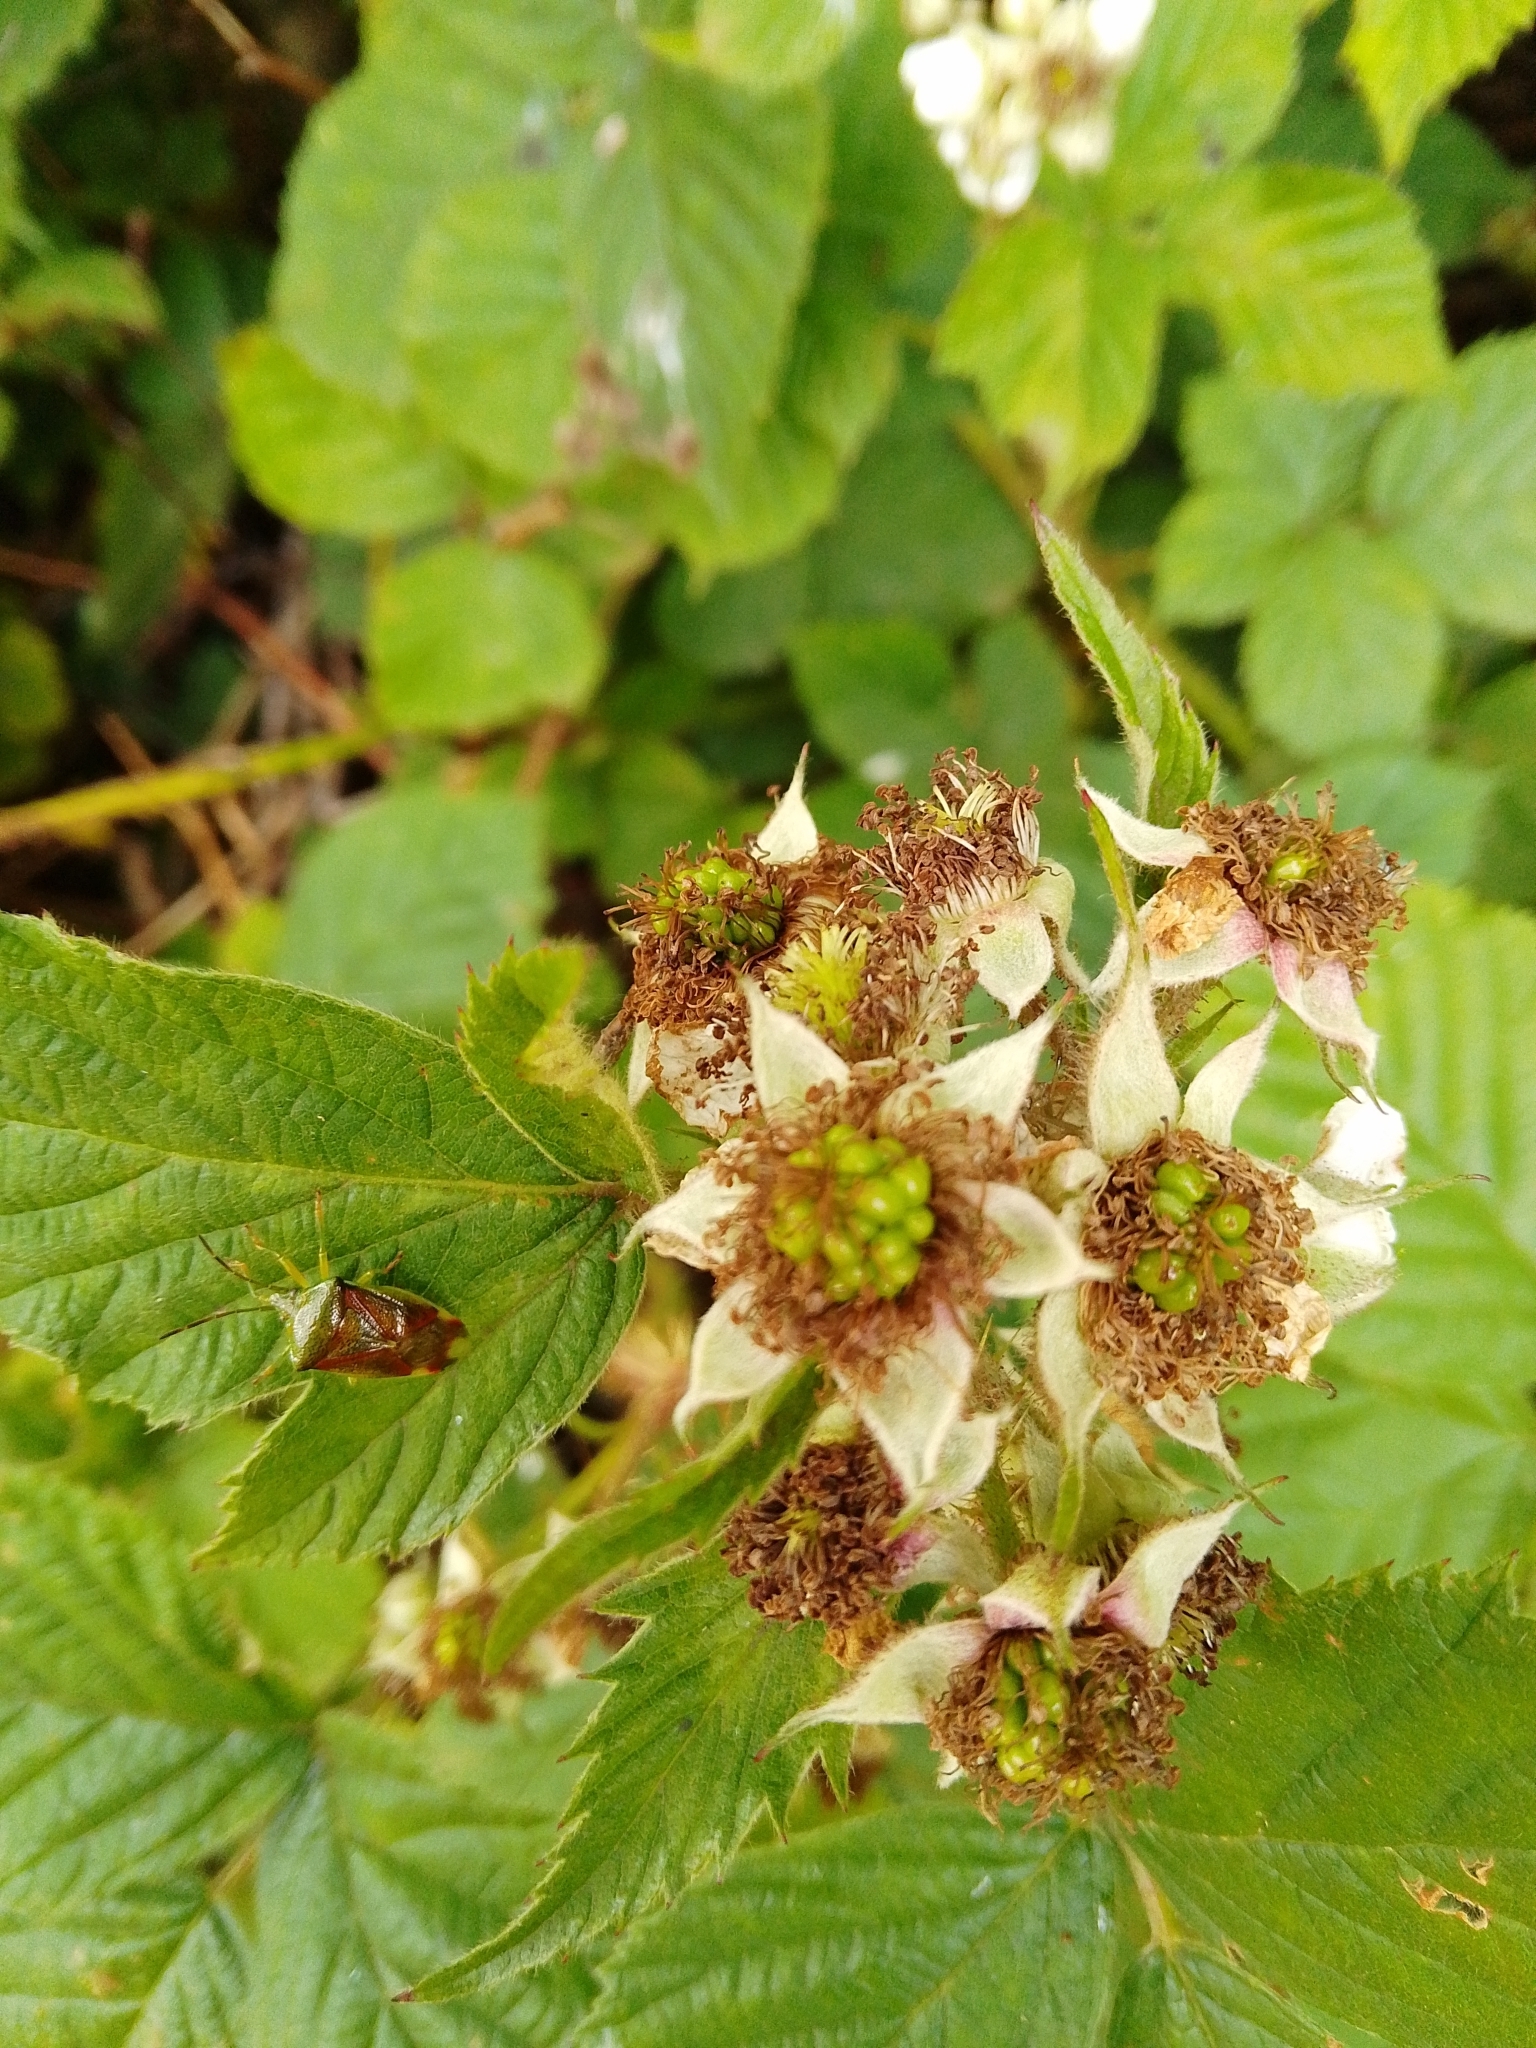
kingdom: Animalia
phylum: Arthropoda
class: Insecta
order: Hemiptera
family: Acanthosomatidae
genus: Elasmostethus
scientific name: Elasmostethus interstinctus
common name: Birch shieldbug
